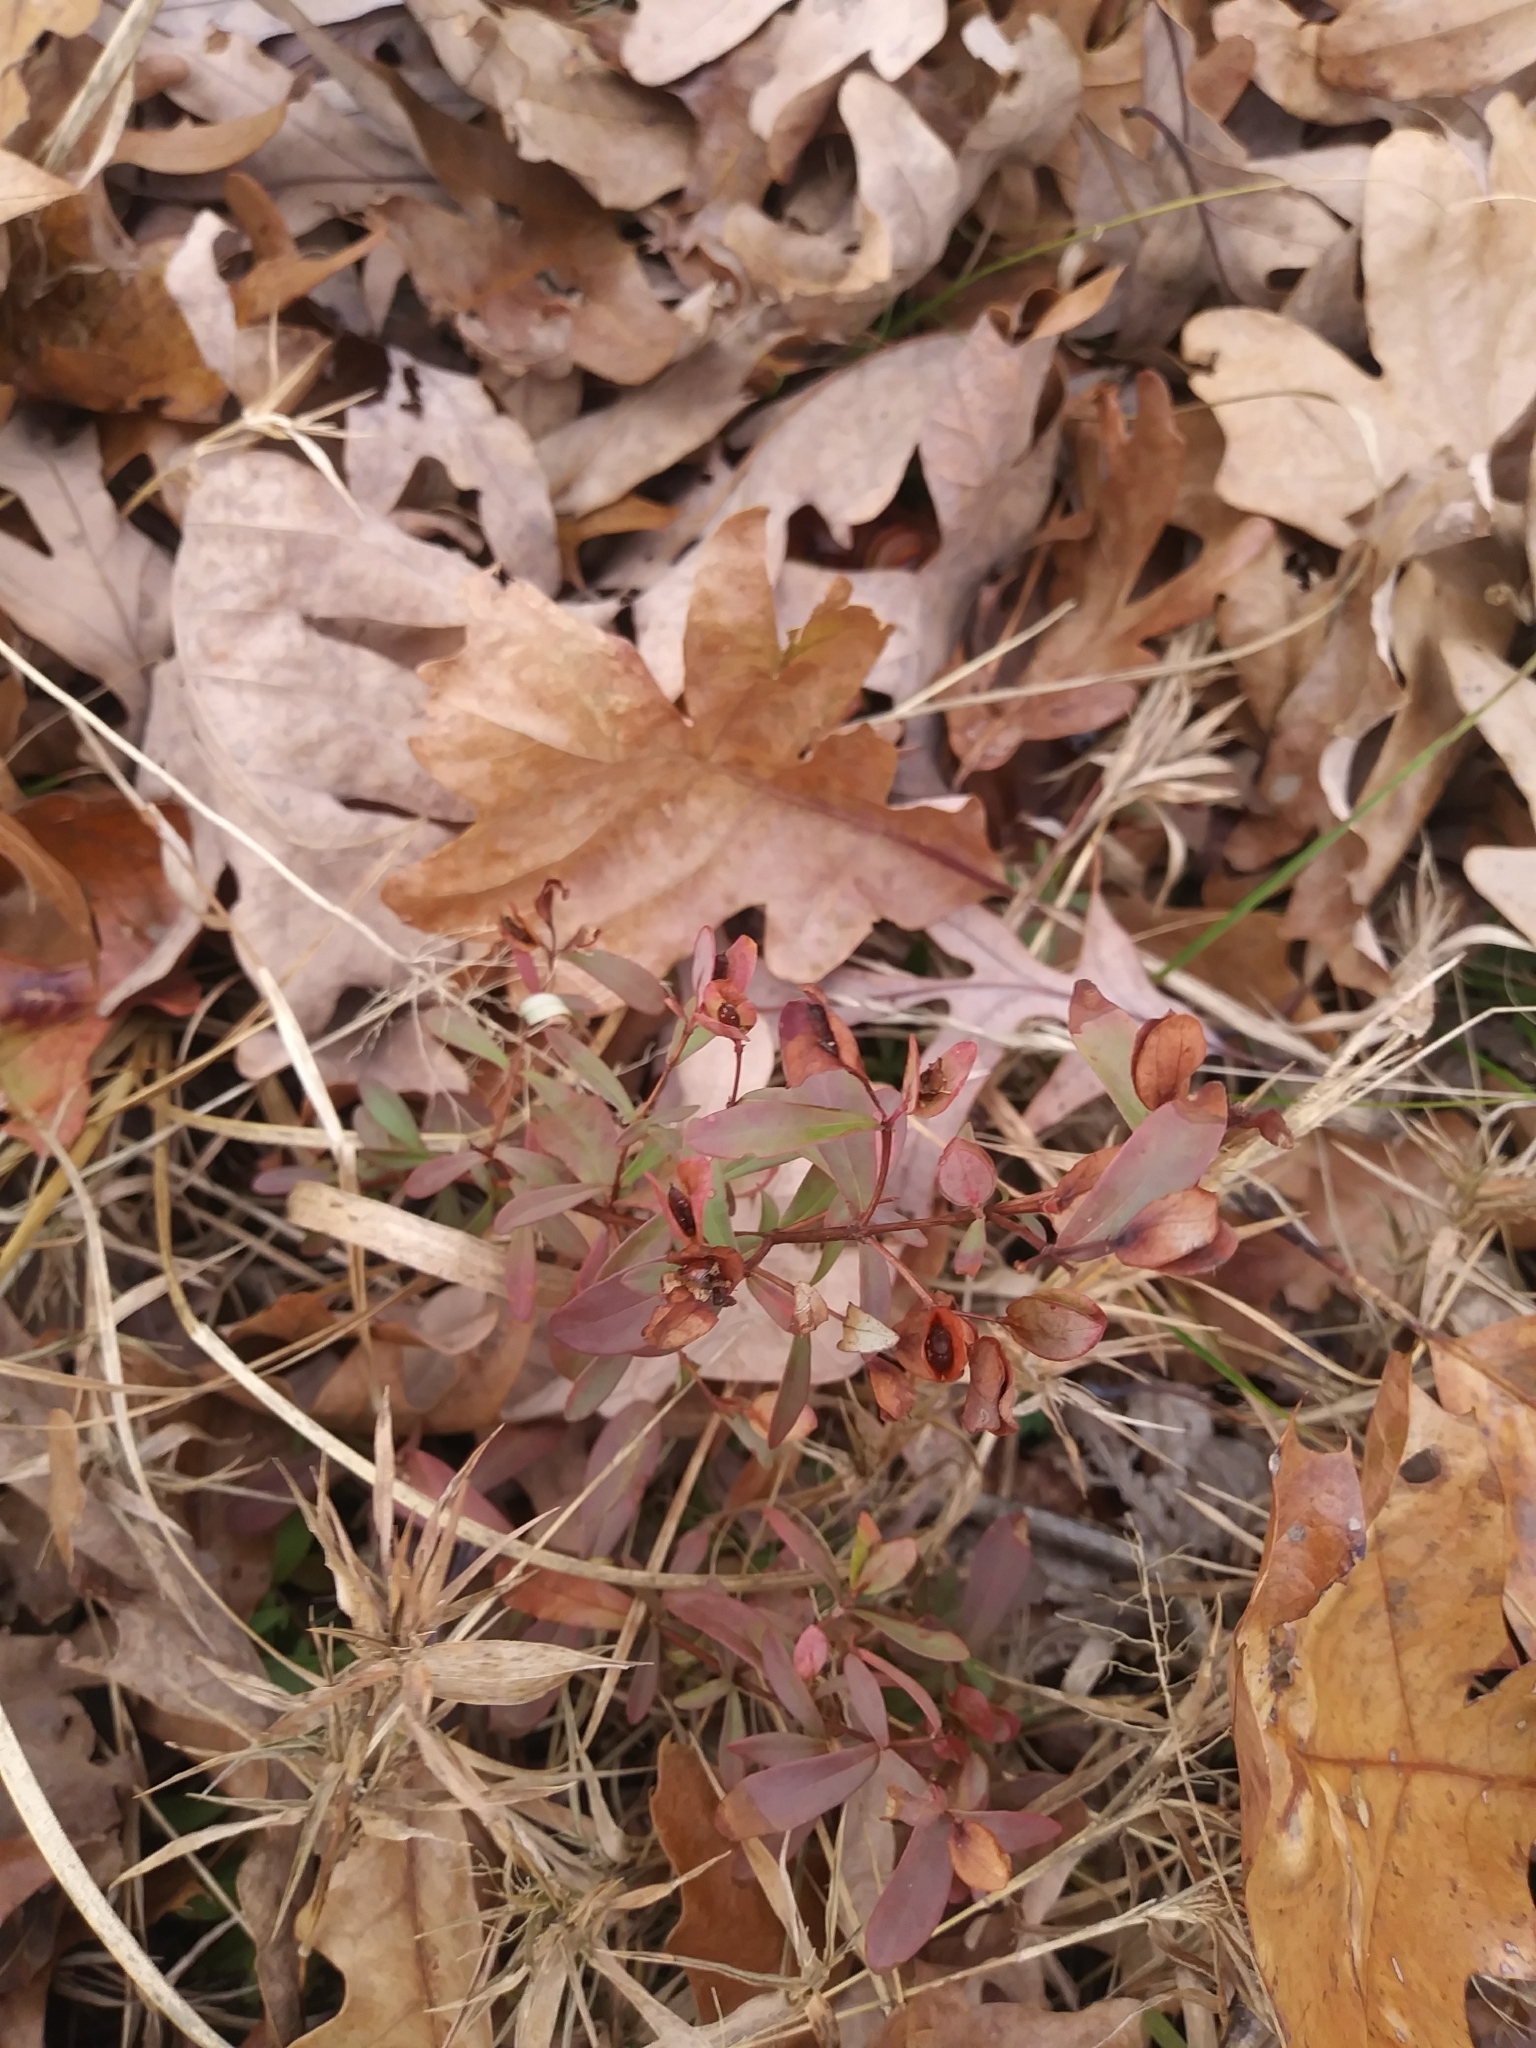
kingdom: Plantae
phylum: Tracheophyta
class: Magnoliopsida
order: Malpighiales
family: Hypericaceae
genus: Hypericum
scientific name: Hypericum hypericoides
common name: St. andrew's cross
